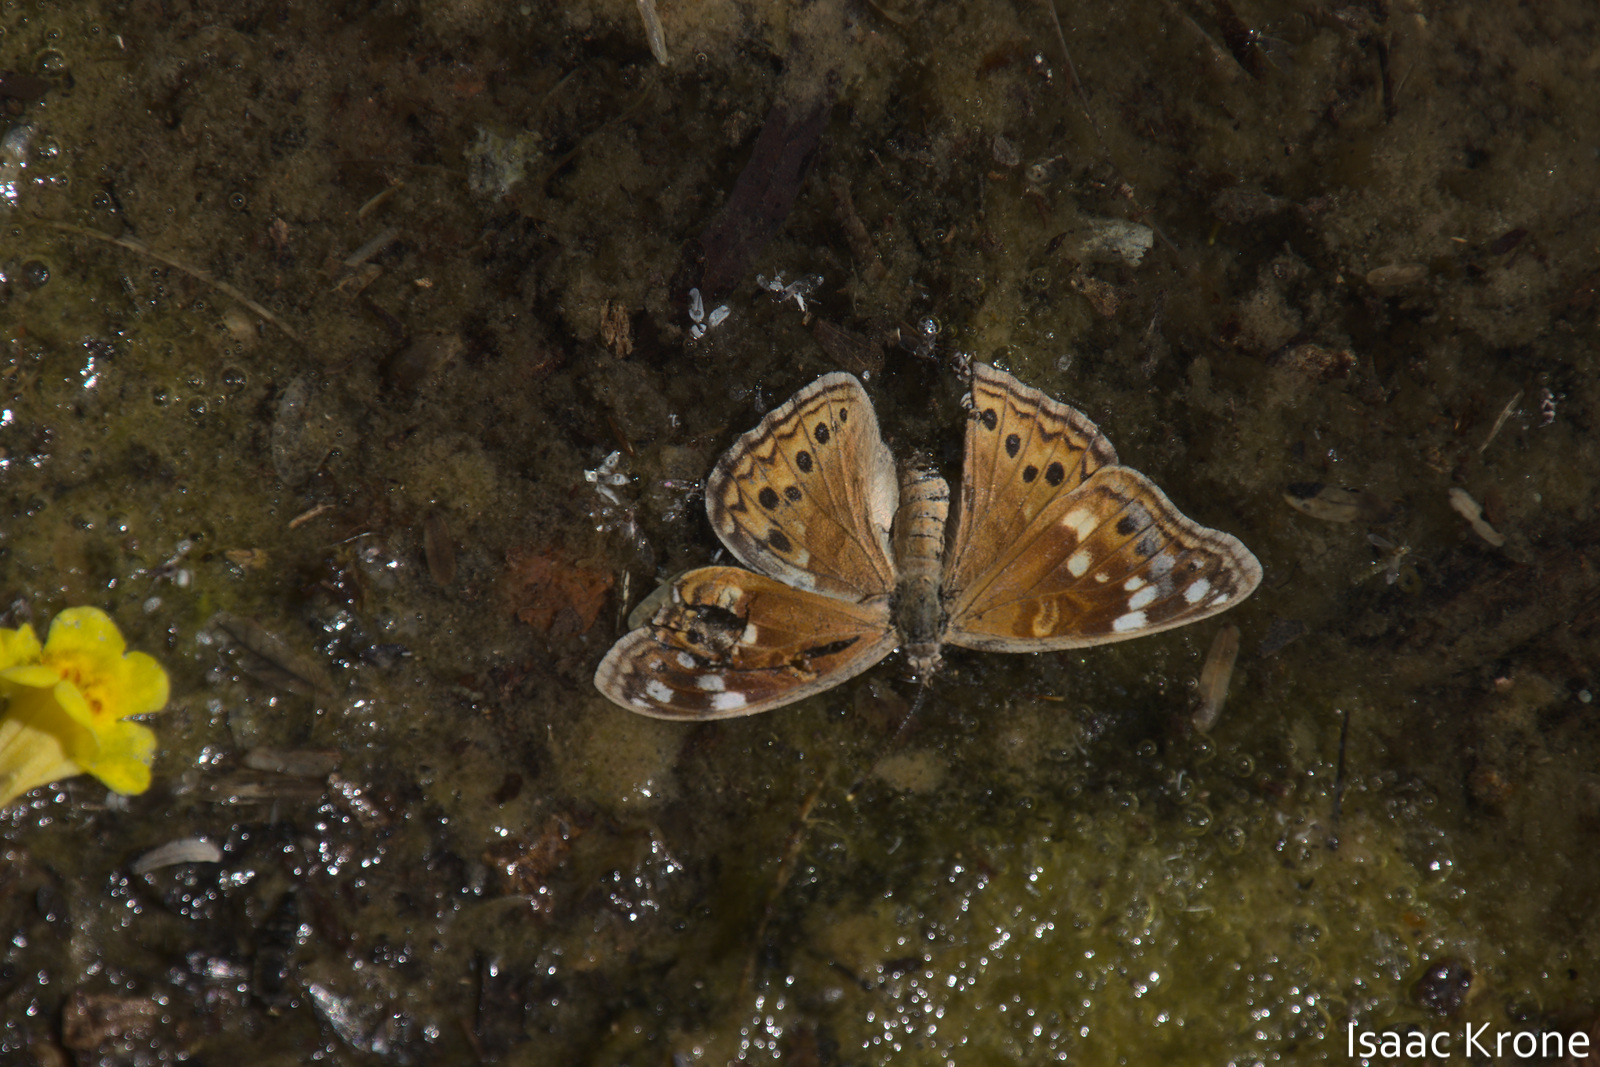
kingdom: Animalia
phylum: Arthropoda
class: Insecta
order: Lepidoptera
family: Nymphalidae
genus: Asterocampa
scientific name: Asterocampa leilia
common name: Empress leilia
